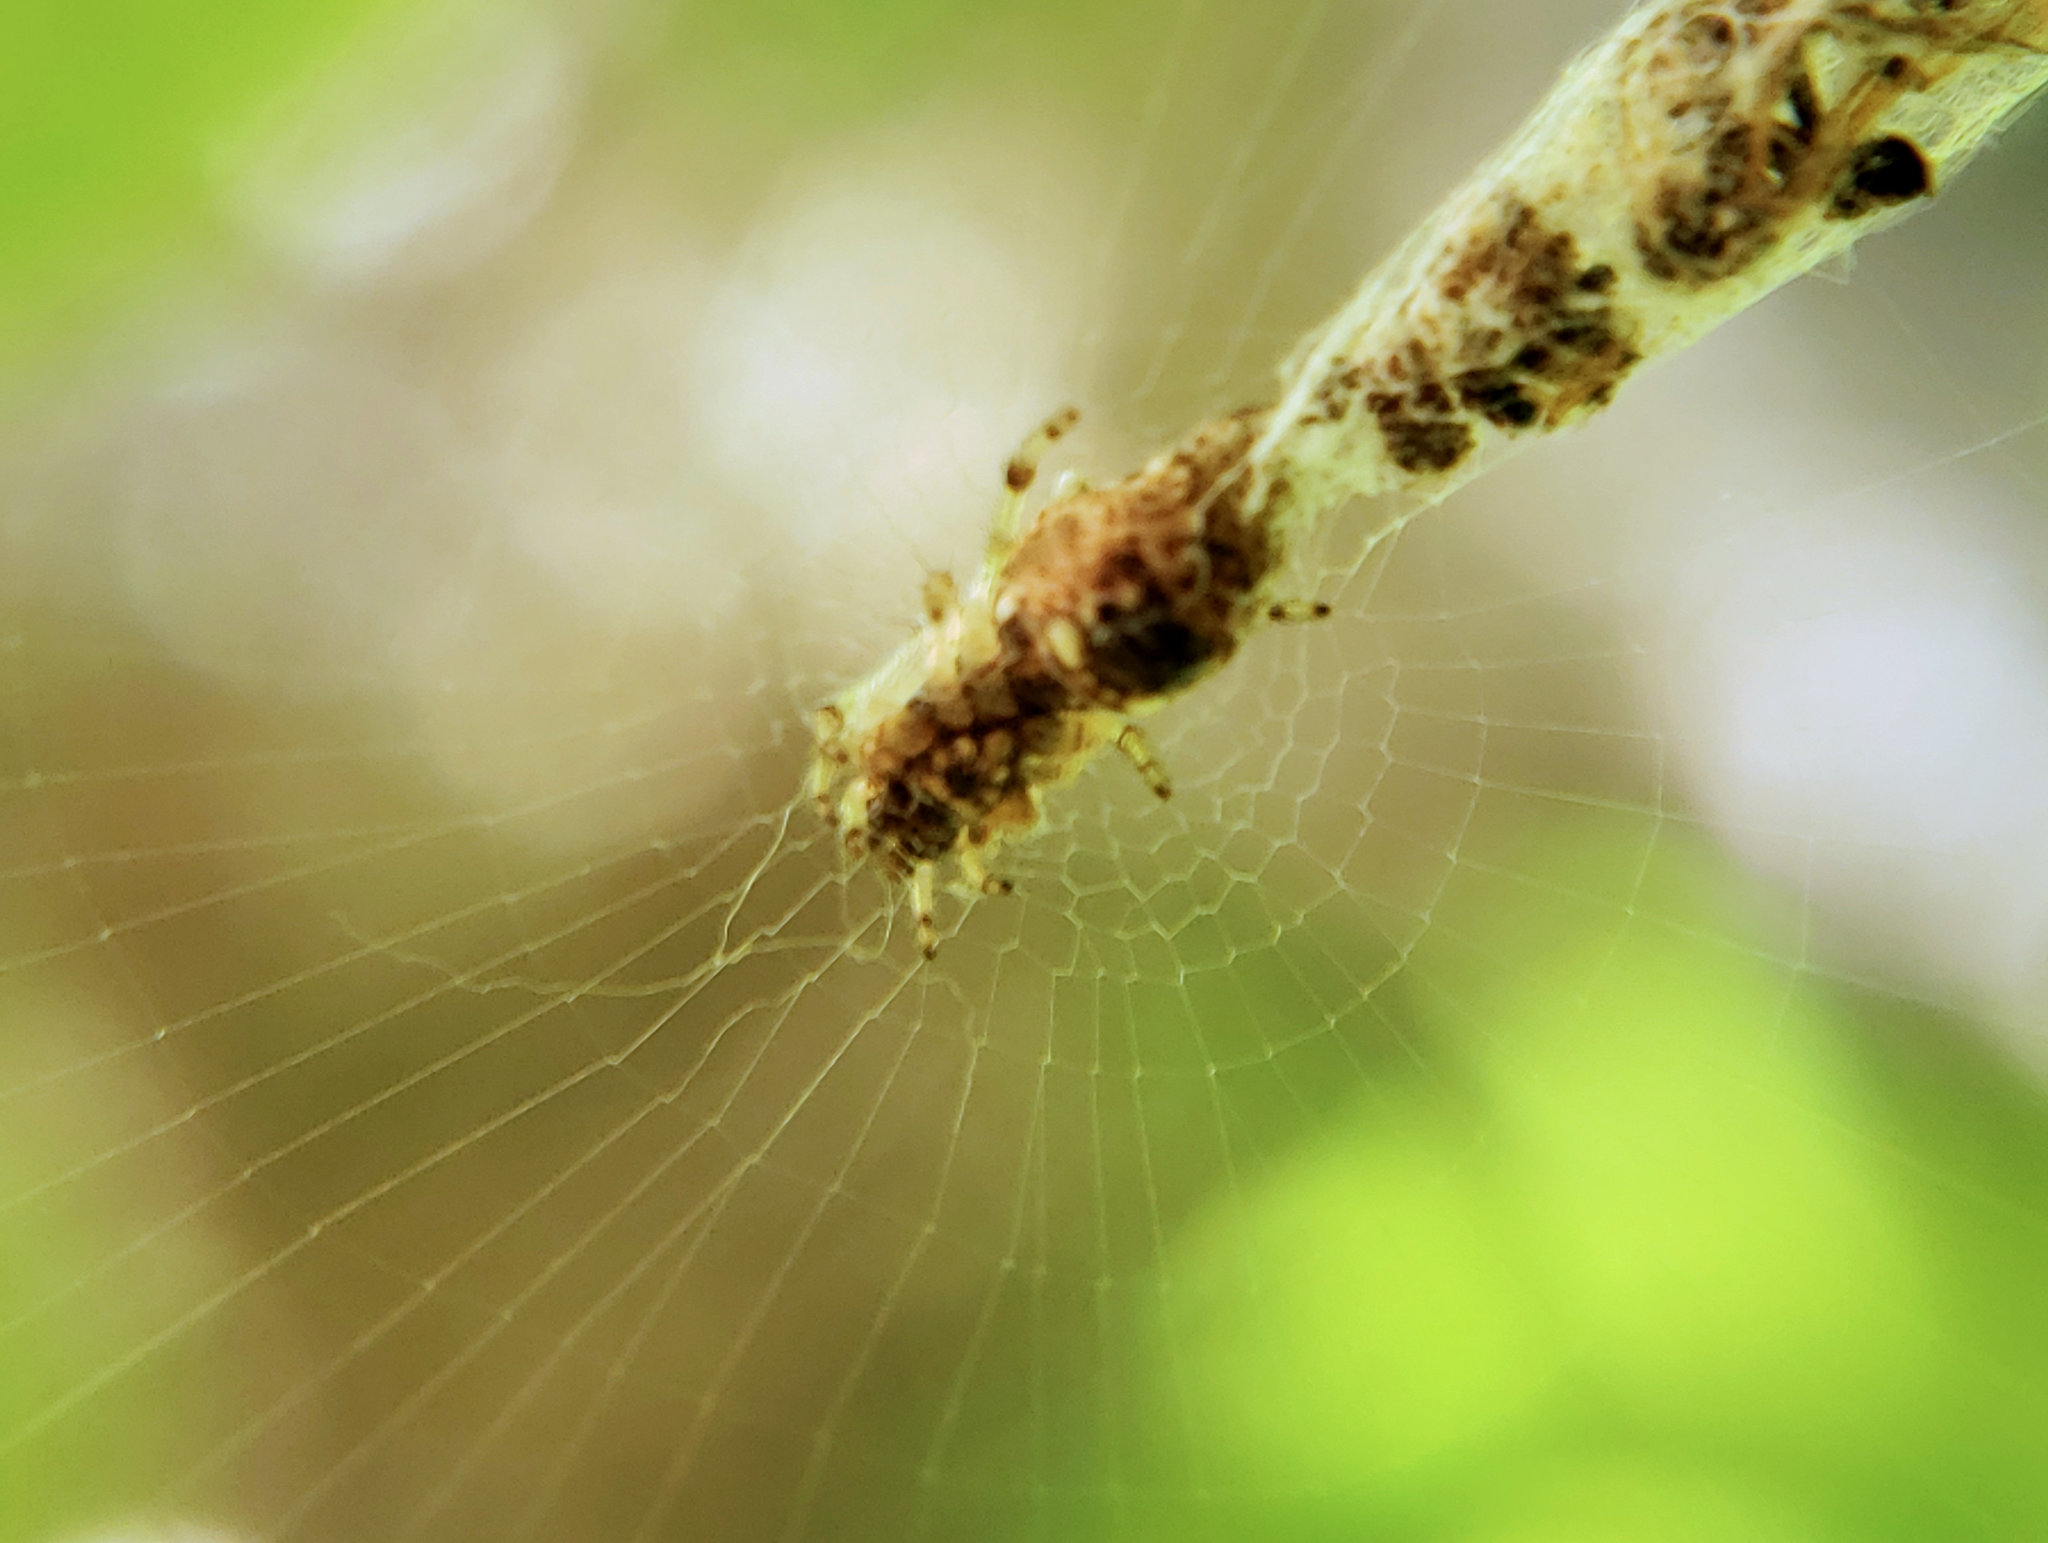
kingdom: Animalia
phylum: Arthropoda
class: Arachnida
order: Araneae
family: Araneidae
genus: Cyclosa
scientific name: Cyclosa turbinata
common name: Orb weavers
